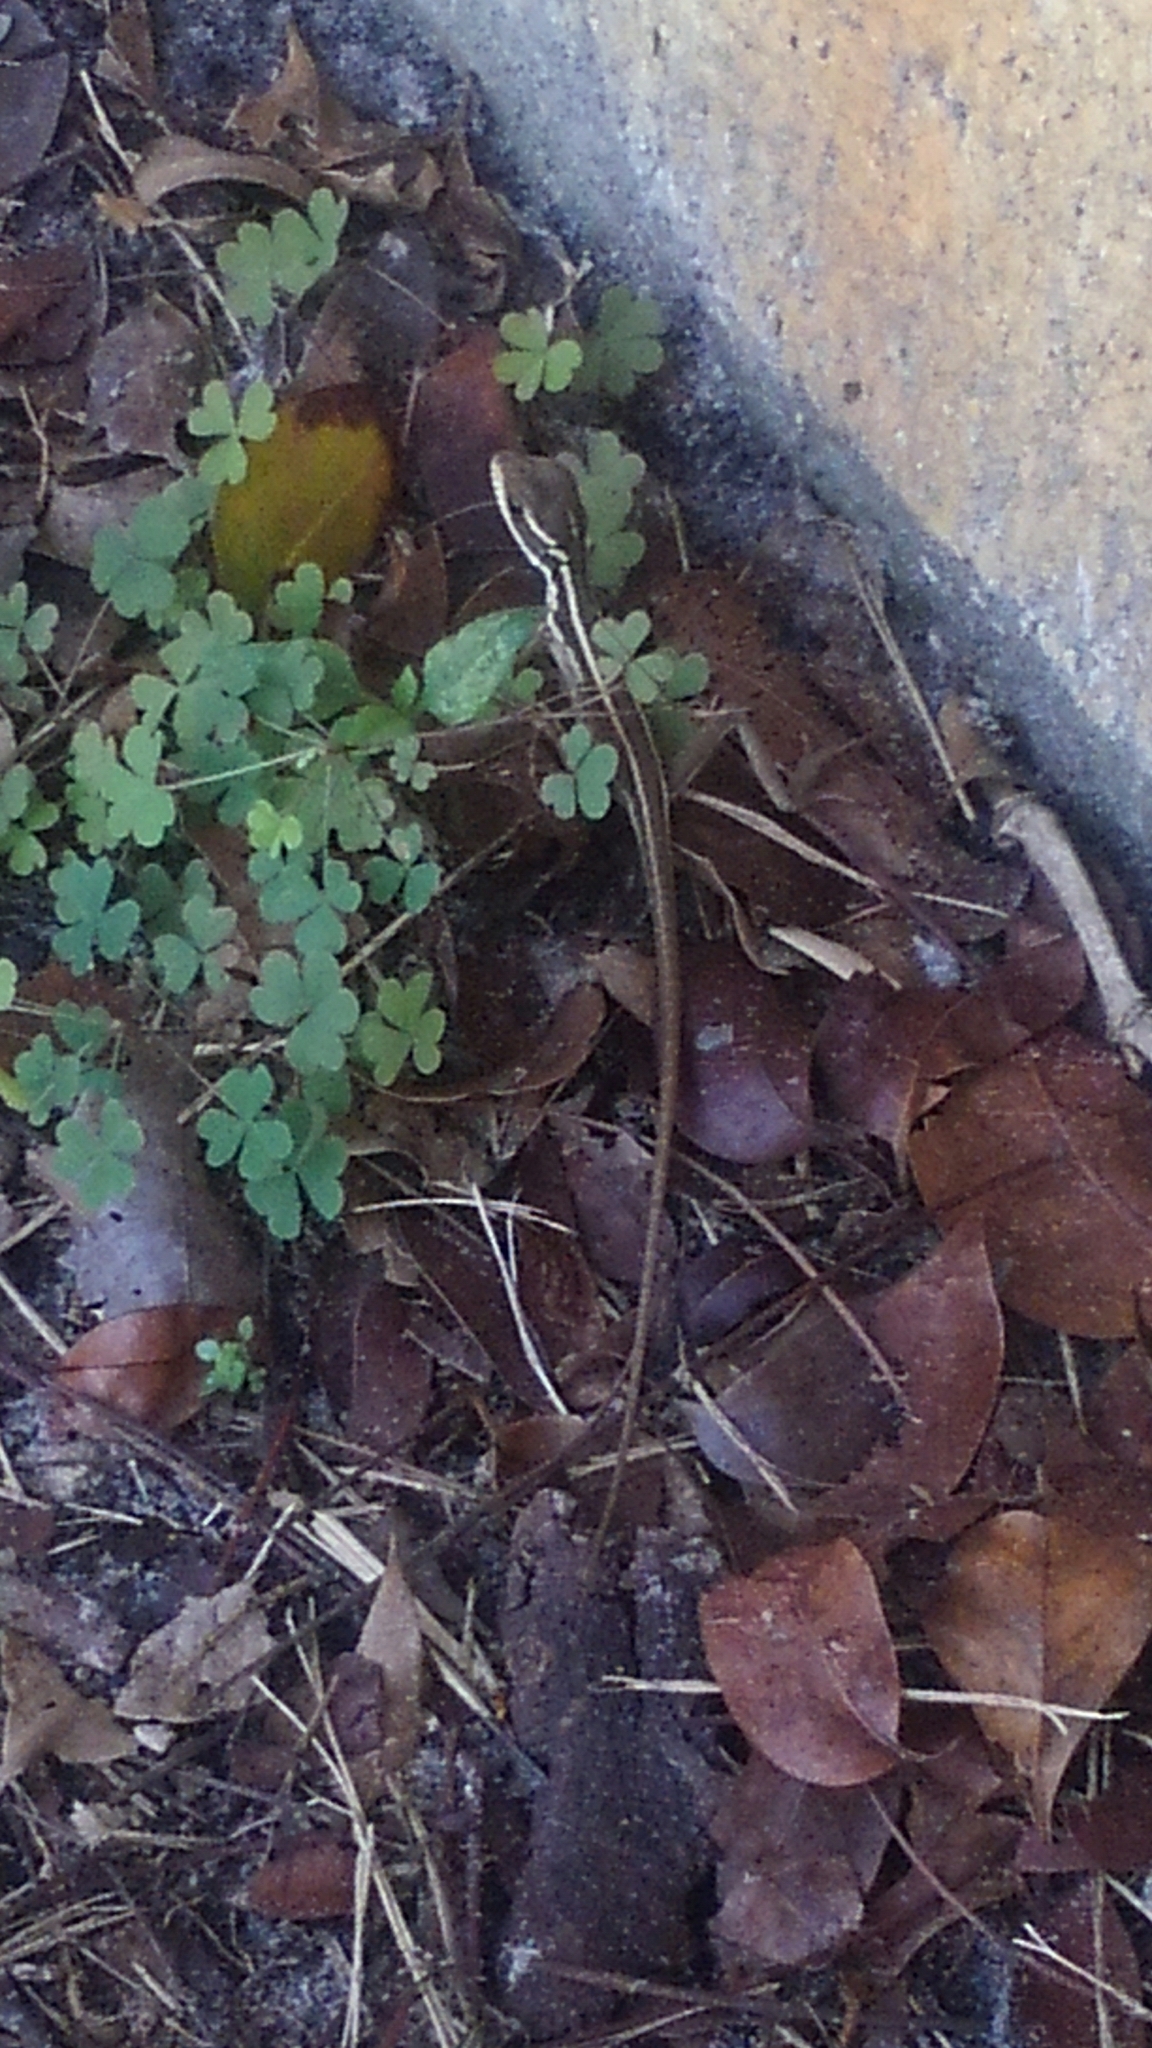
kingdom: Animalia
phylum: Chordata
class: Squamata
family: Corytophanidae
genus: Basiliscus
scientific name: Basiliscus vittatus
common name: Brown basilisk
